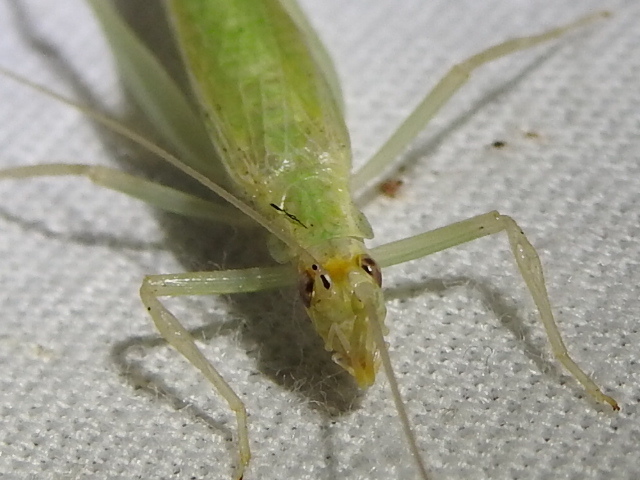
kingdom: Animalia
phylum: Arthropoda
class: Insecta
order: Orthoptera
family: Gryllidae
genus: Oecanthus
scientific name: Oecanthus exclamationis
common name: Davis's tree cricket
